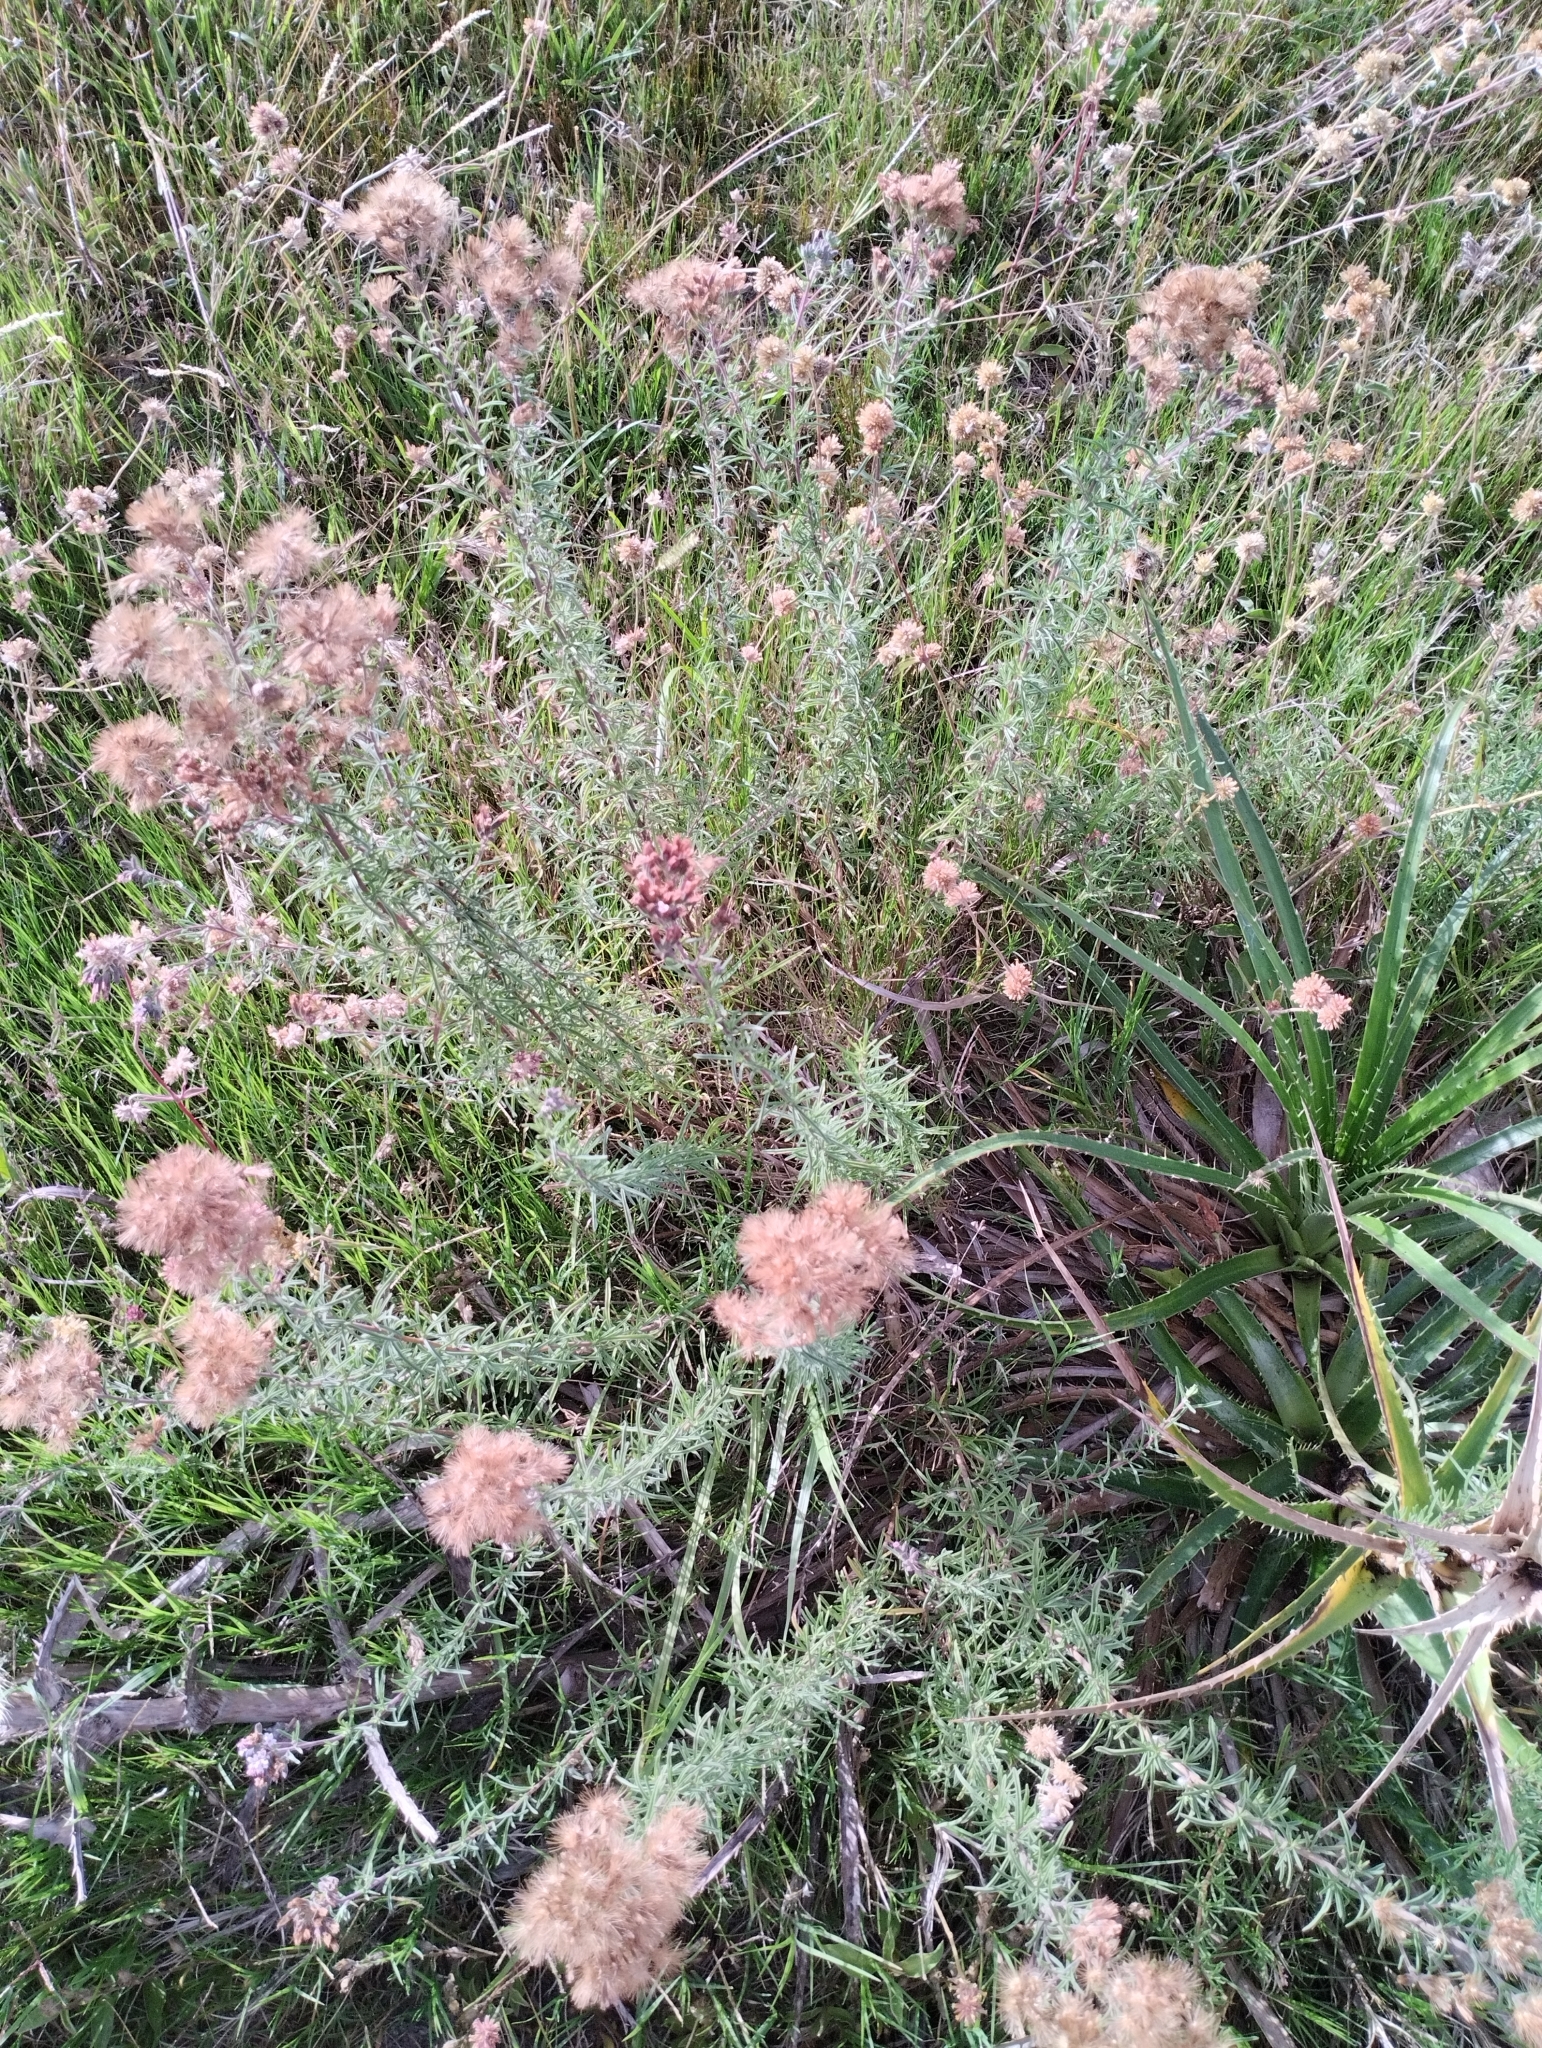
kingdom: Plantae
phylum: Tracheophyta
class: Magnoliopsida
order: Asterales
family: Asteraceae
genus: Stevia
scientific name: Stevia satureifolia
